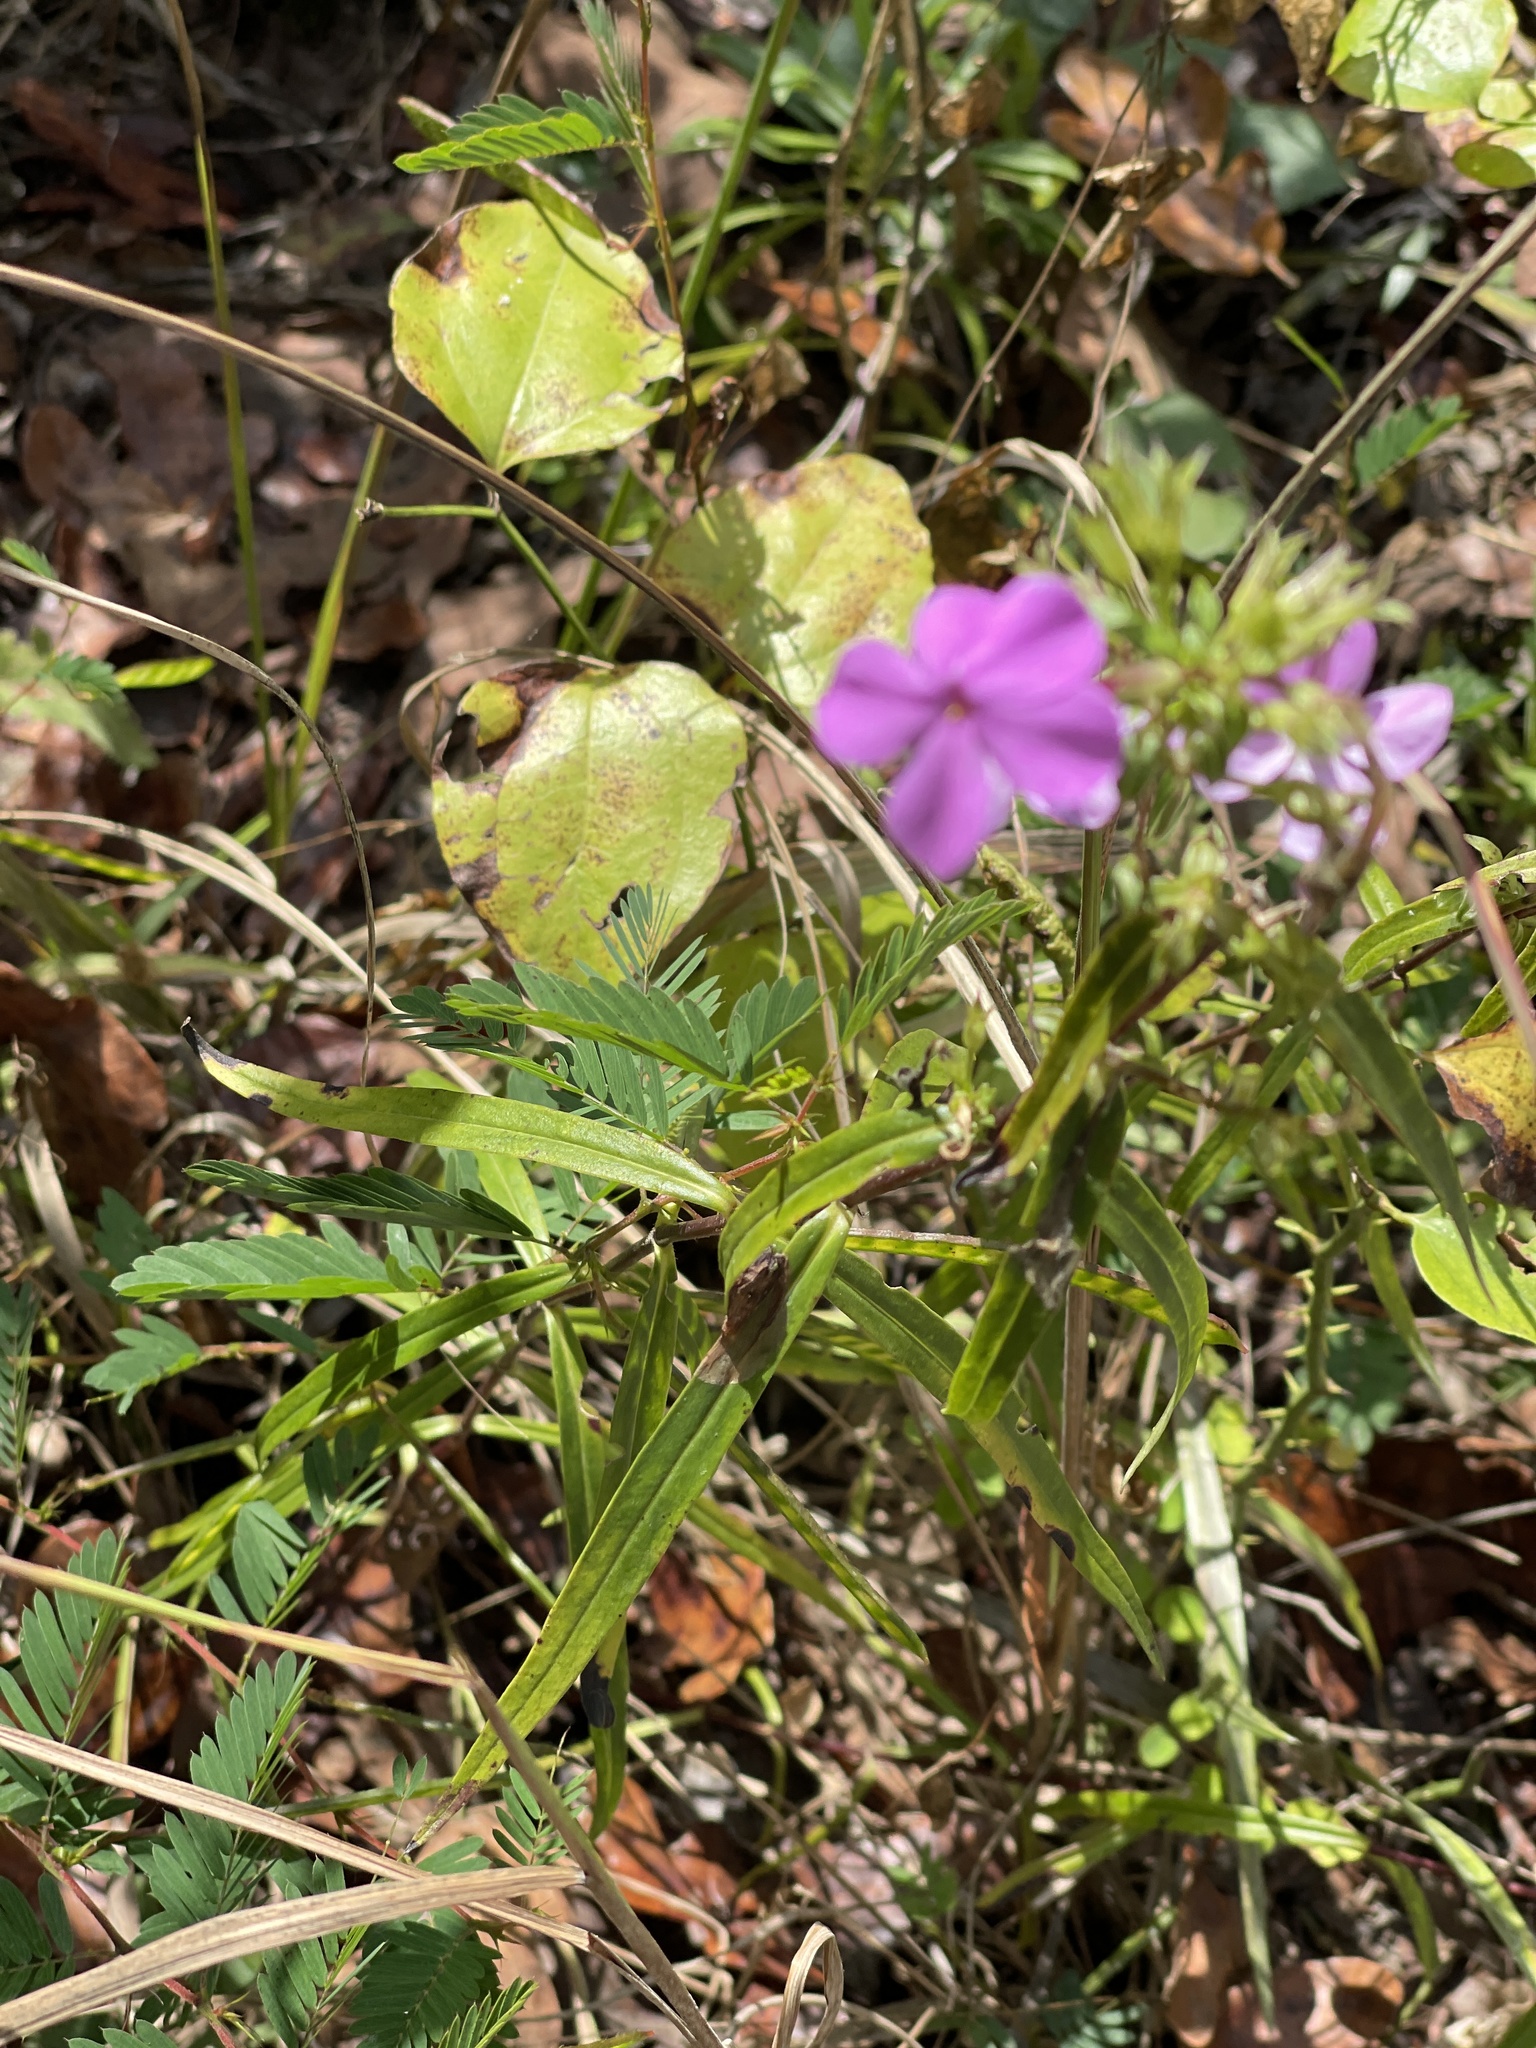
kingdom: Plantae
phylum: Tracheophyta
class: Magnoliopsida
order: Ericales
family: Polemoniaceae
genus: Phlox
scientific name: Phlox carolina
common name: Thick-leaf phlox
